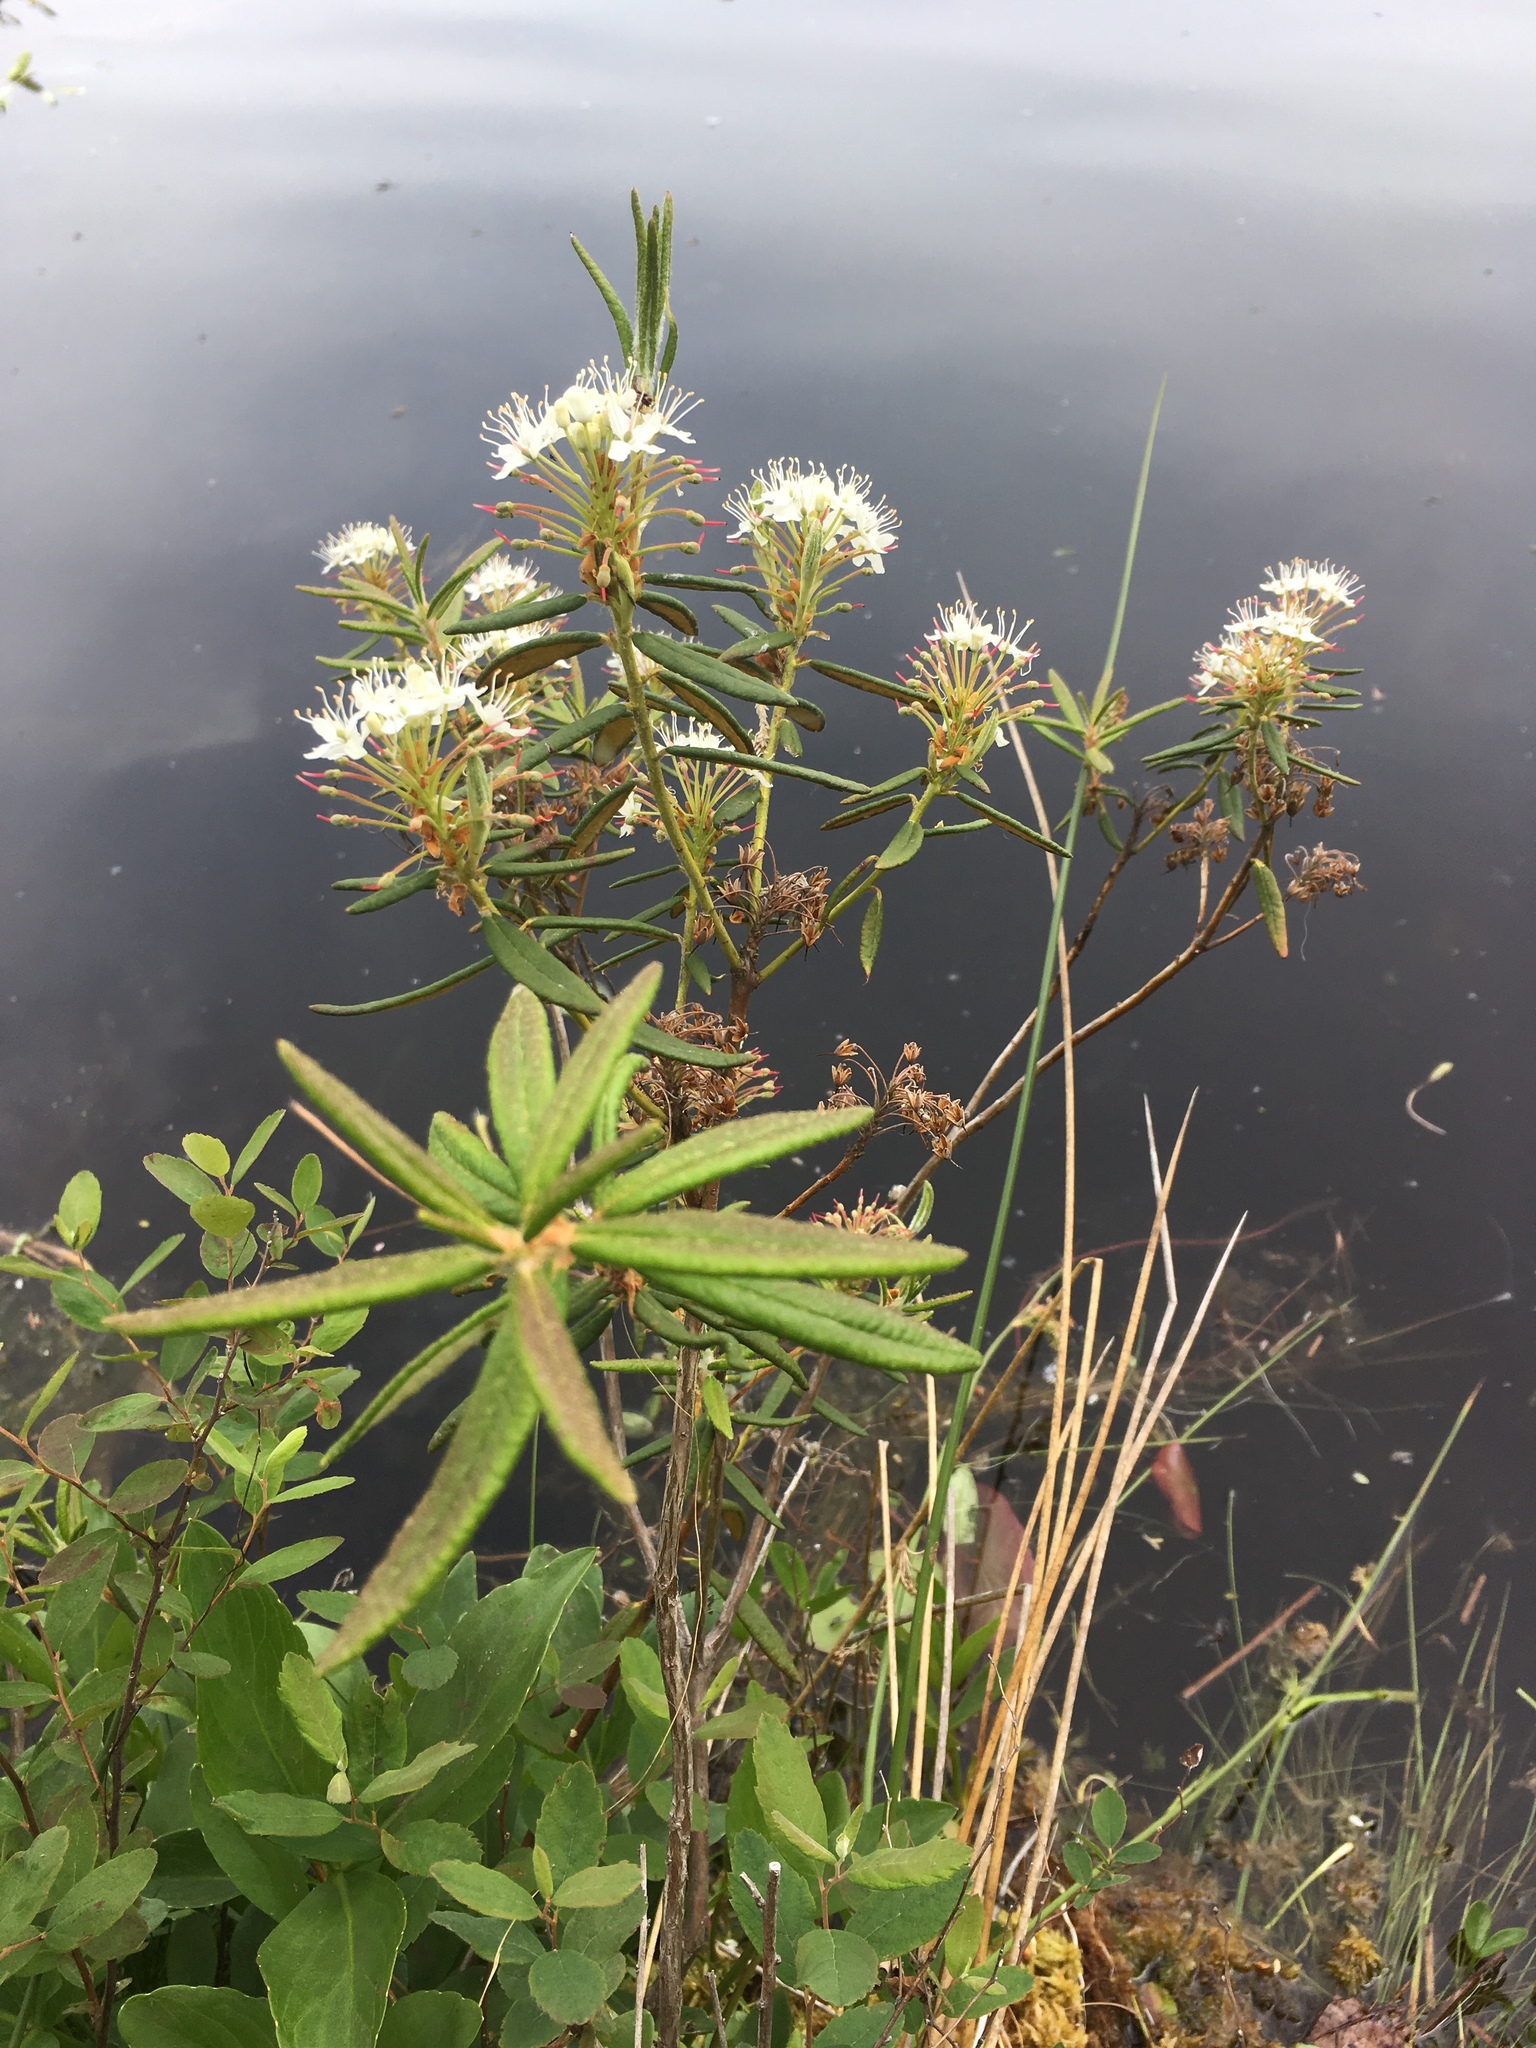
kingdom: Plantae
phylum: Tracheophyta
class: Magnoliopsida
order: Ericales
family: Ericaceae
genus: Rhododendron
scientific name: Rhododendron groenlandicum
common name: Bog labrador tea
